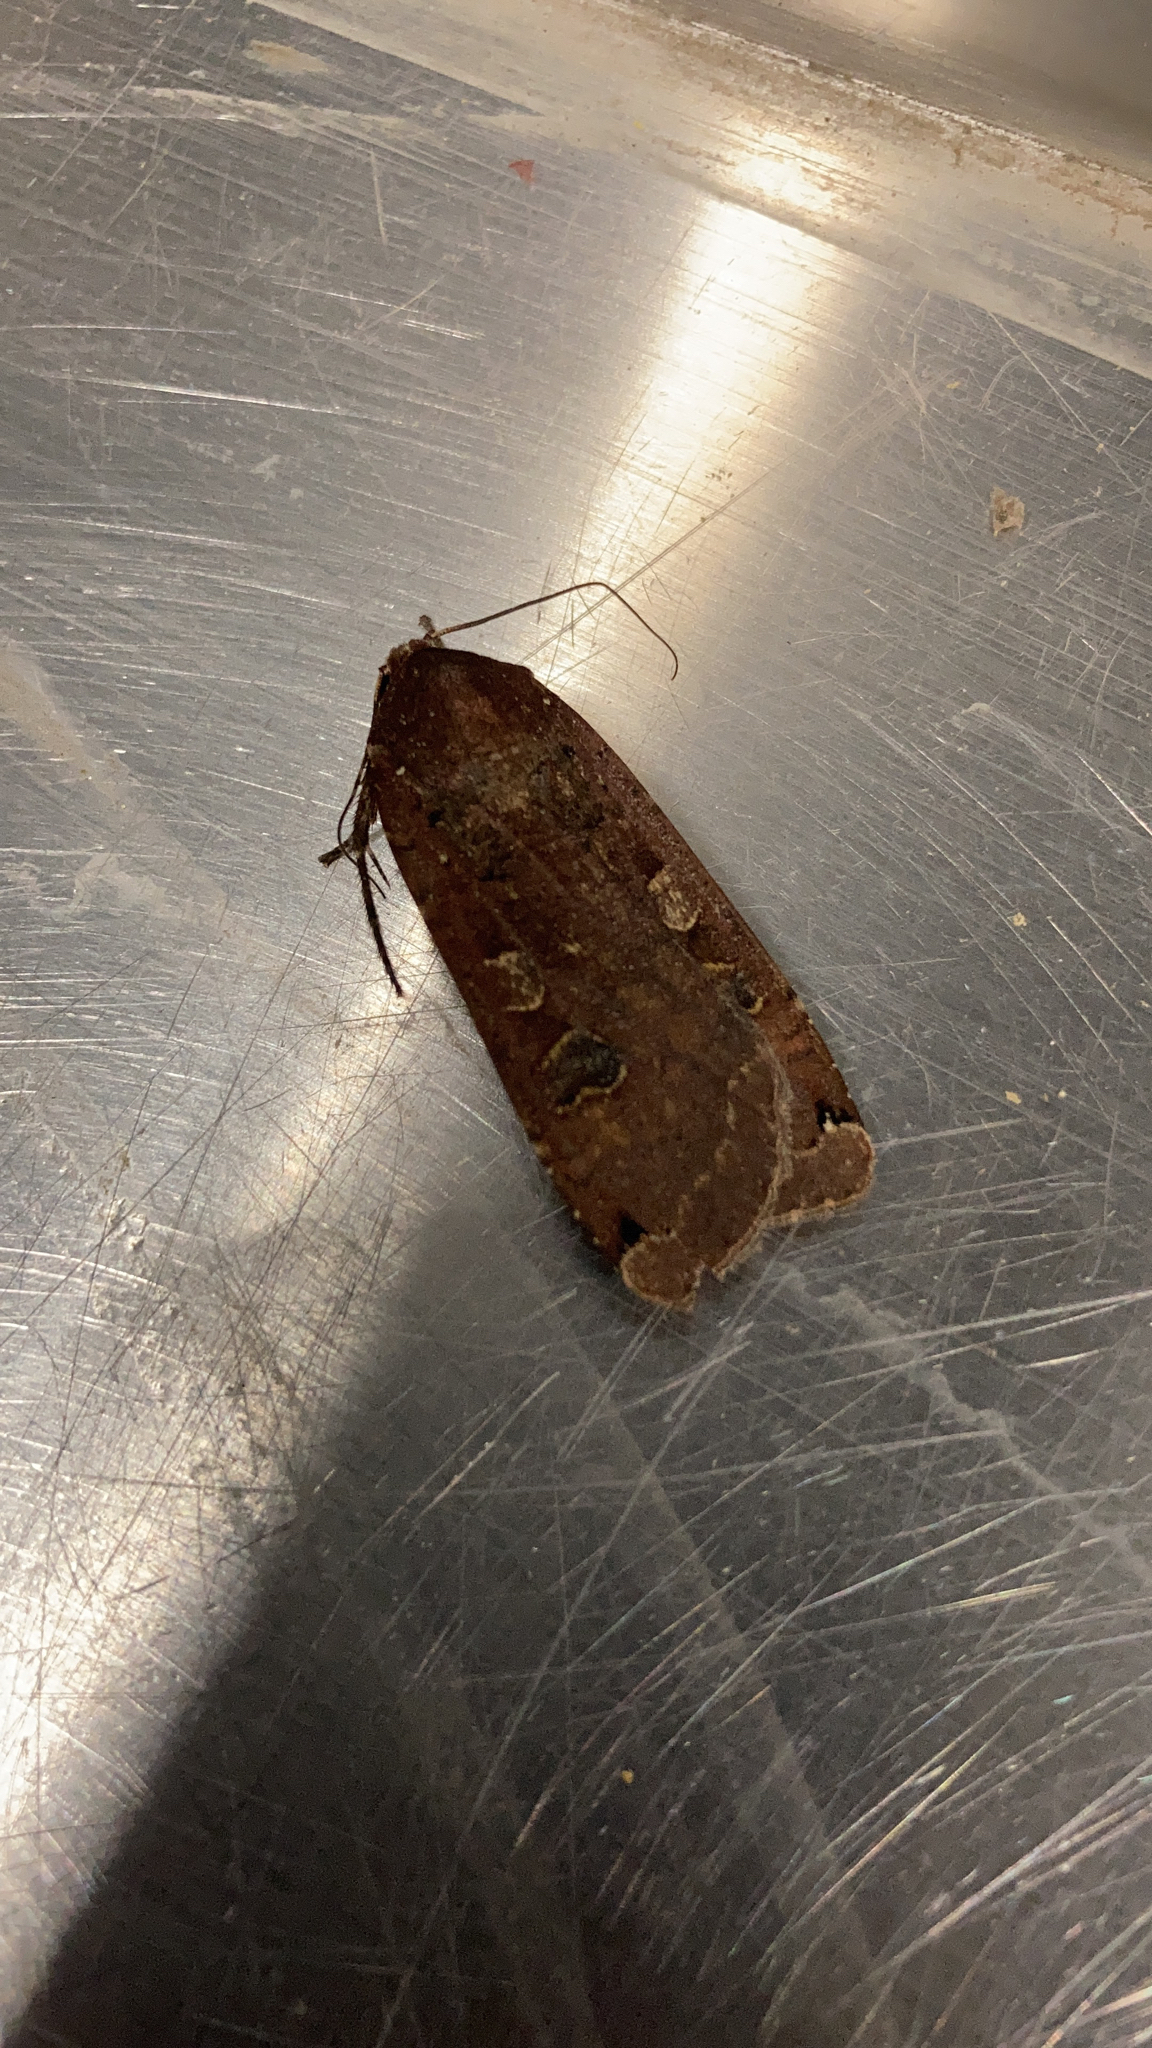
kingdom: Animalia
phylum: Arthropoda
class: Insecta
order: Lepidoptera
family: Noctuidae
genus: Noctua
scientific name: Noctua pronuba
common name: Large yellow underwing
